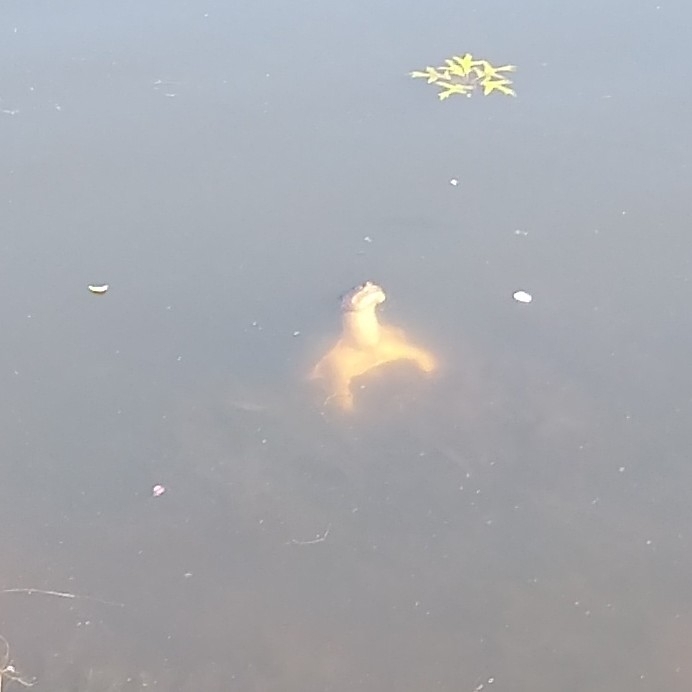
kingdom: Animalia
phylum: Chordata
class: Testudines
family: Chelydridae
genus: Chelydra
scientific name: Chelydra serpentina
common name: Common snapping turtle
